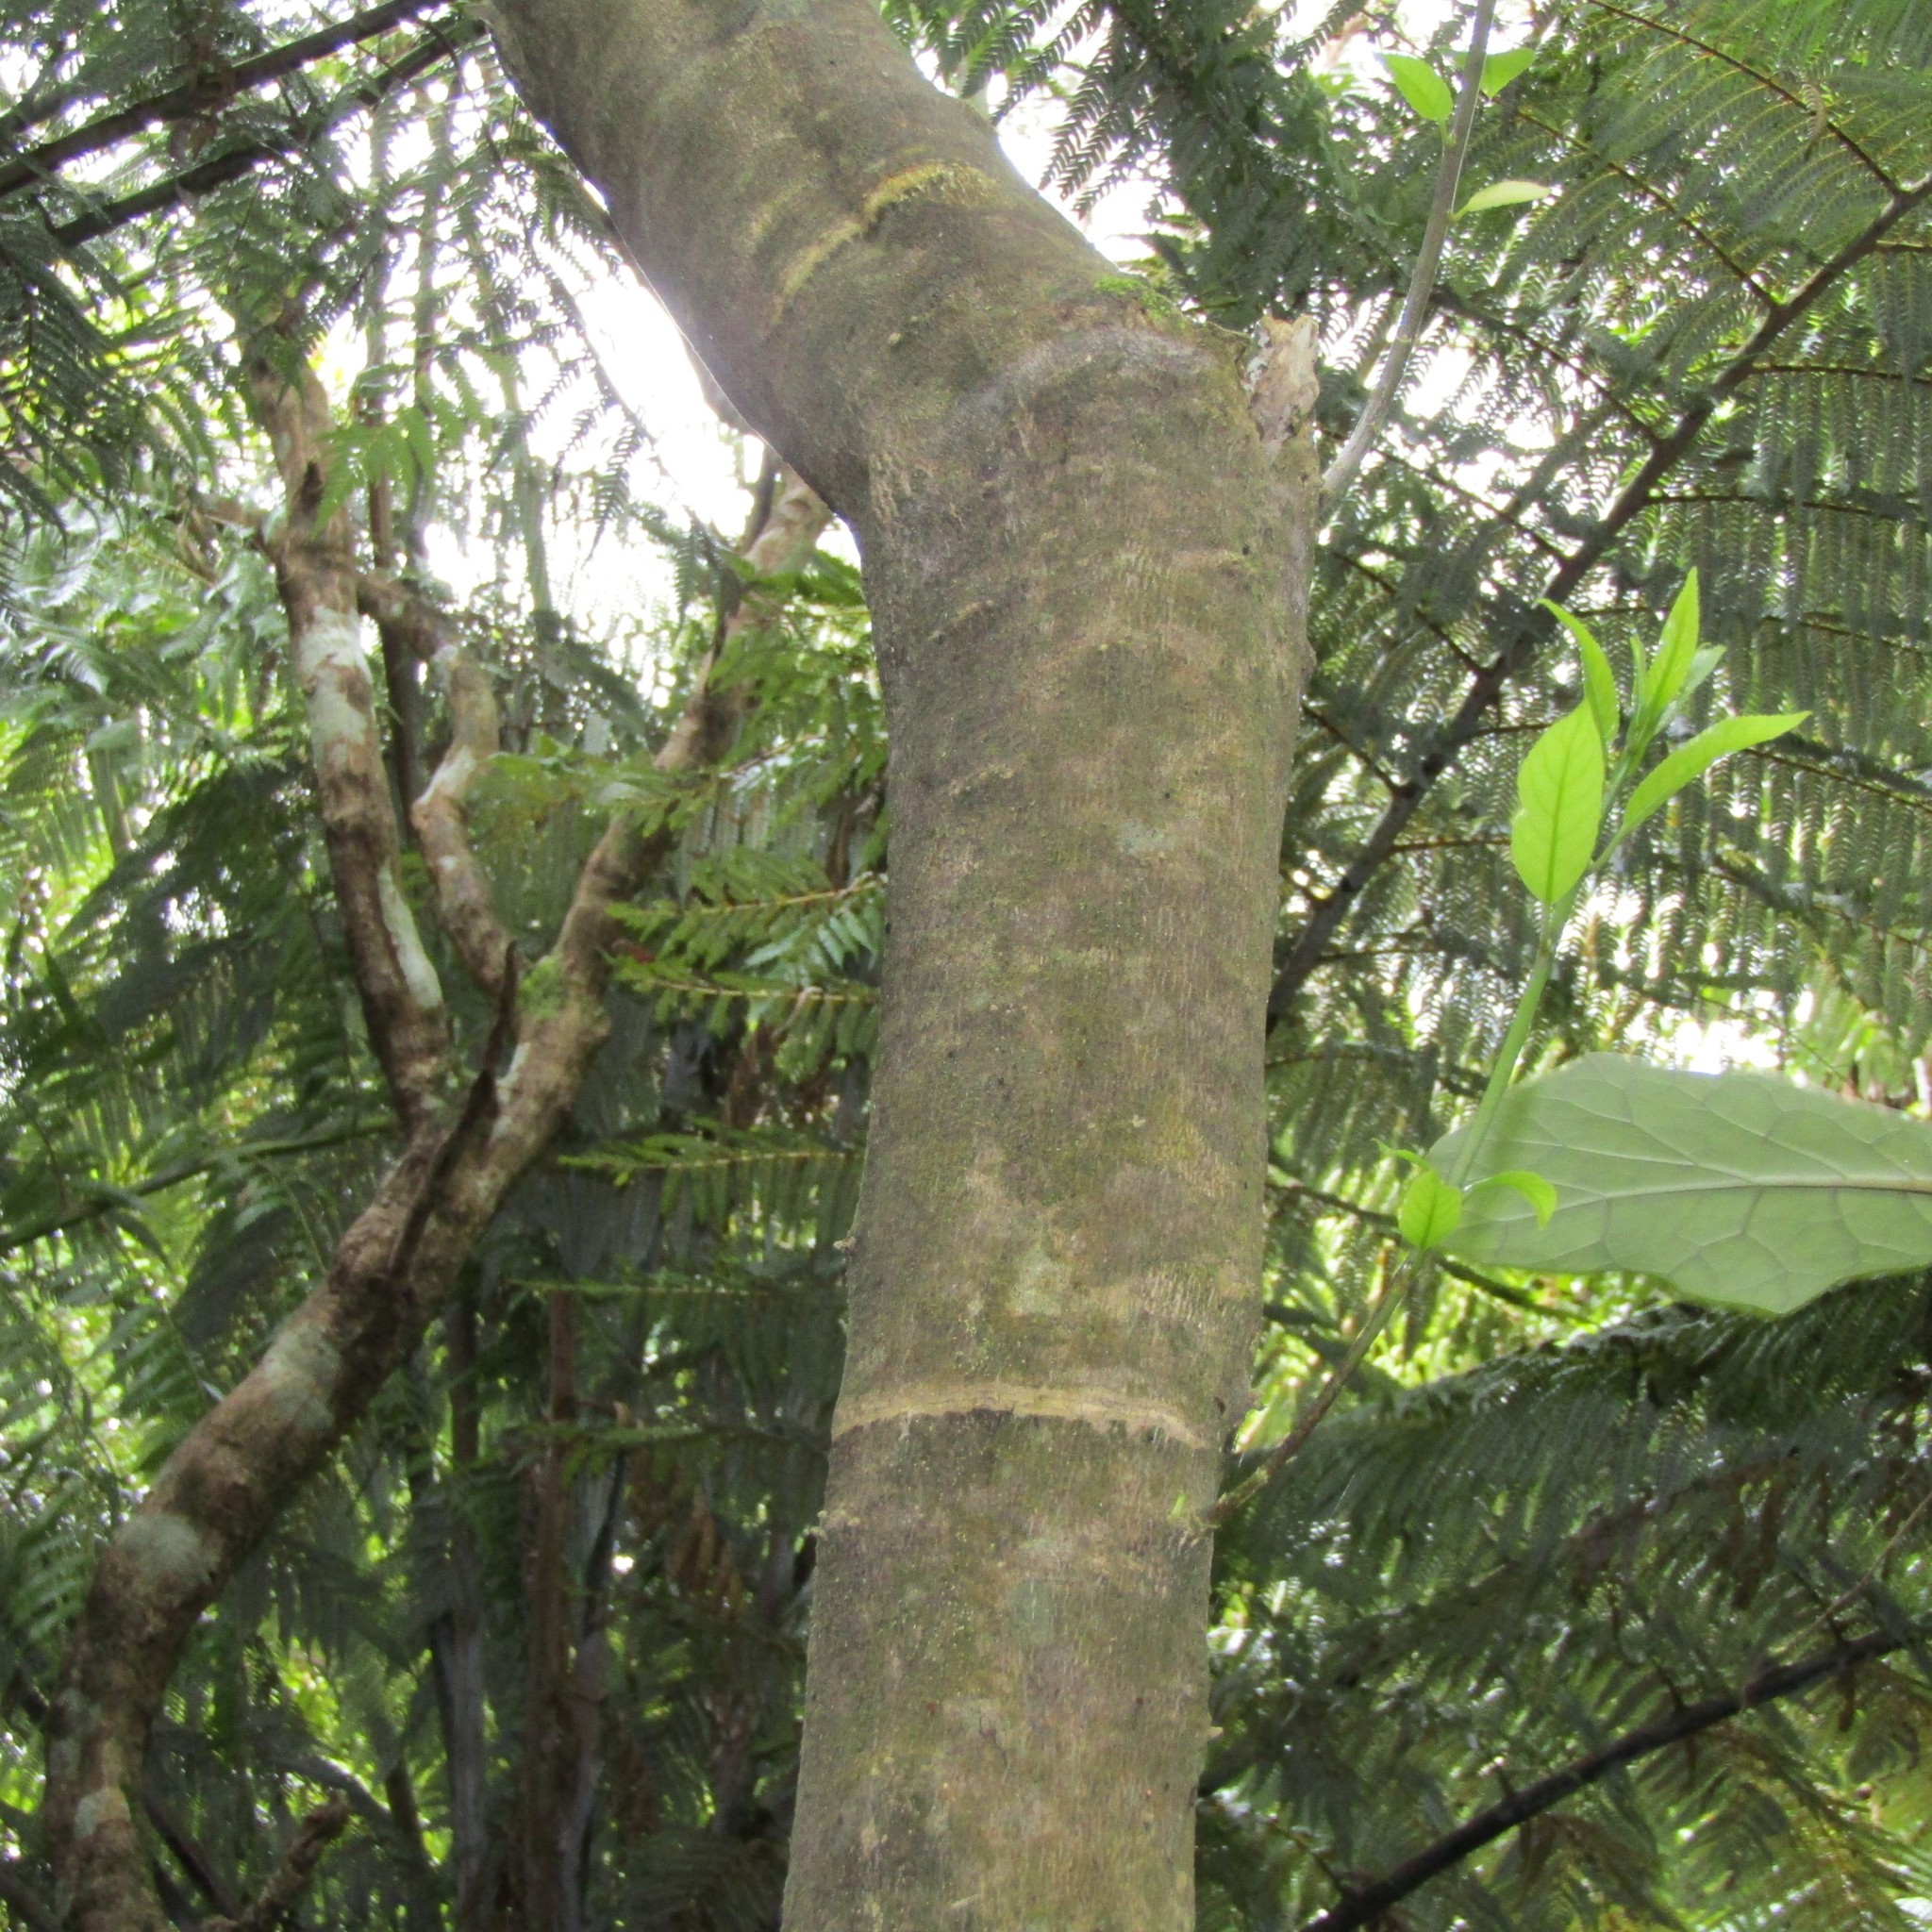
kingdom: Animalia
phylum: Chordata
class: Aves
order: Psittaciformes
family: Psittacidae
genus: Nestor
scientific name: Nestor meridionalis
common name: New zealand kaka
